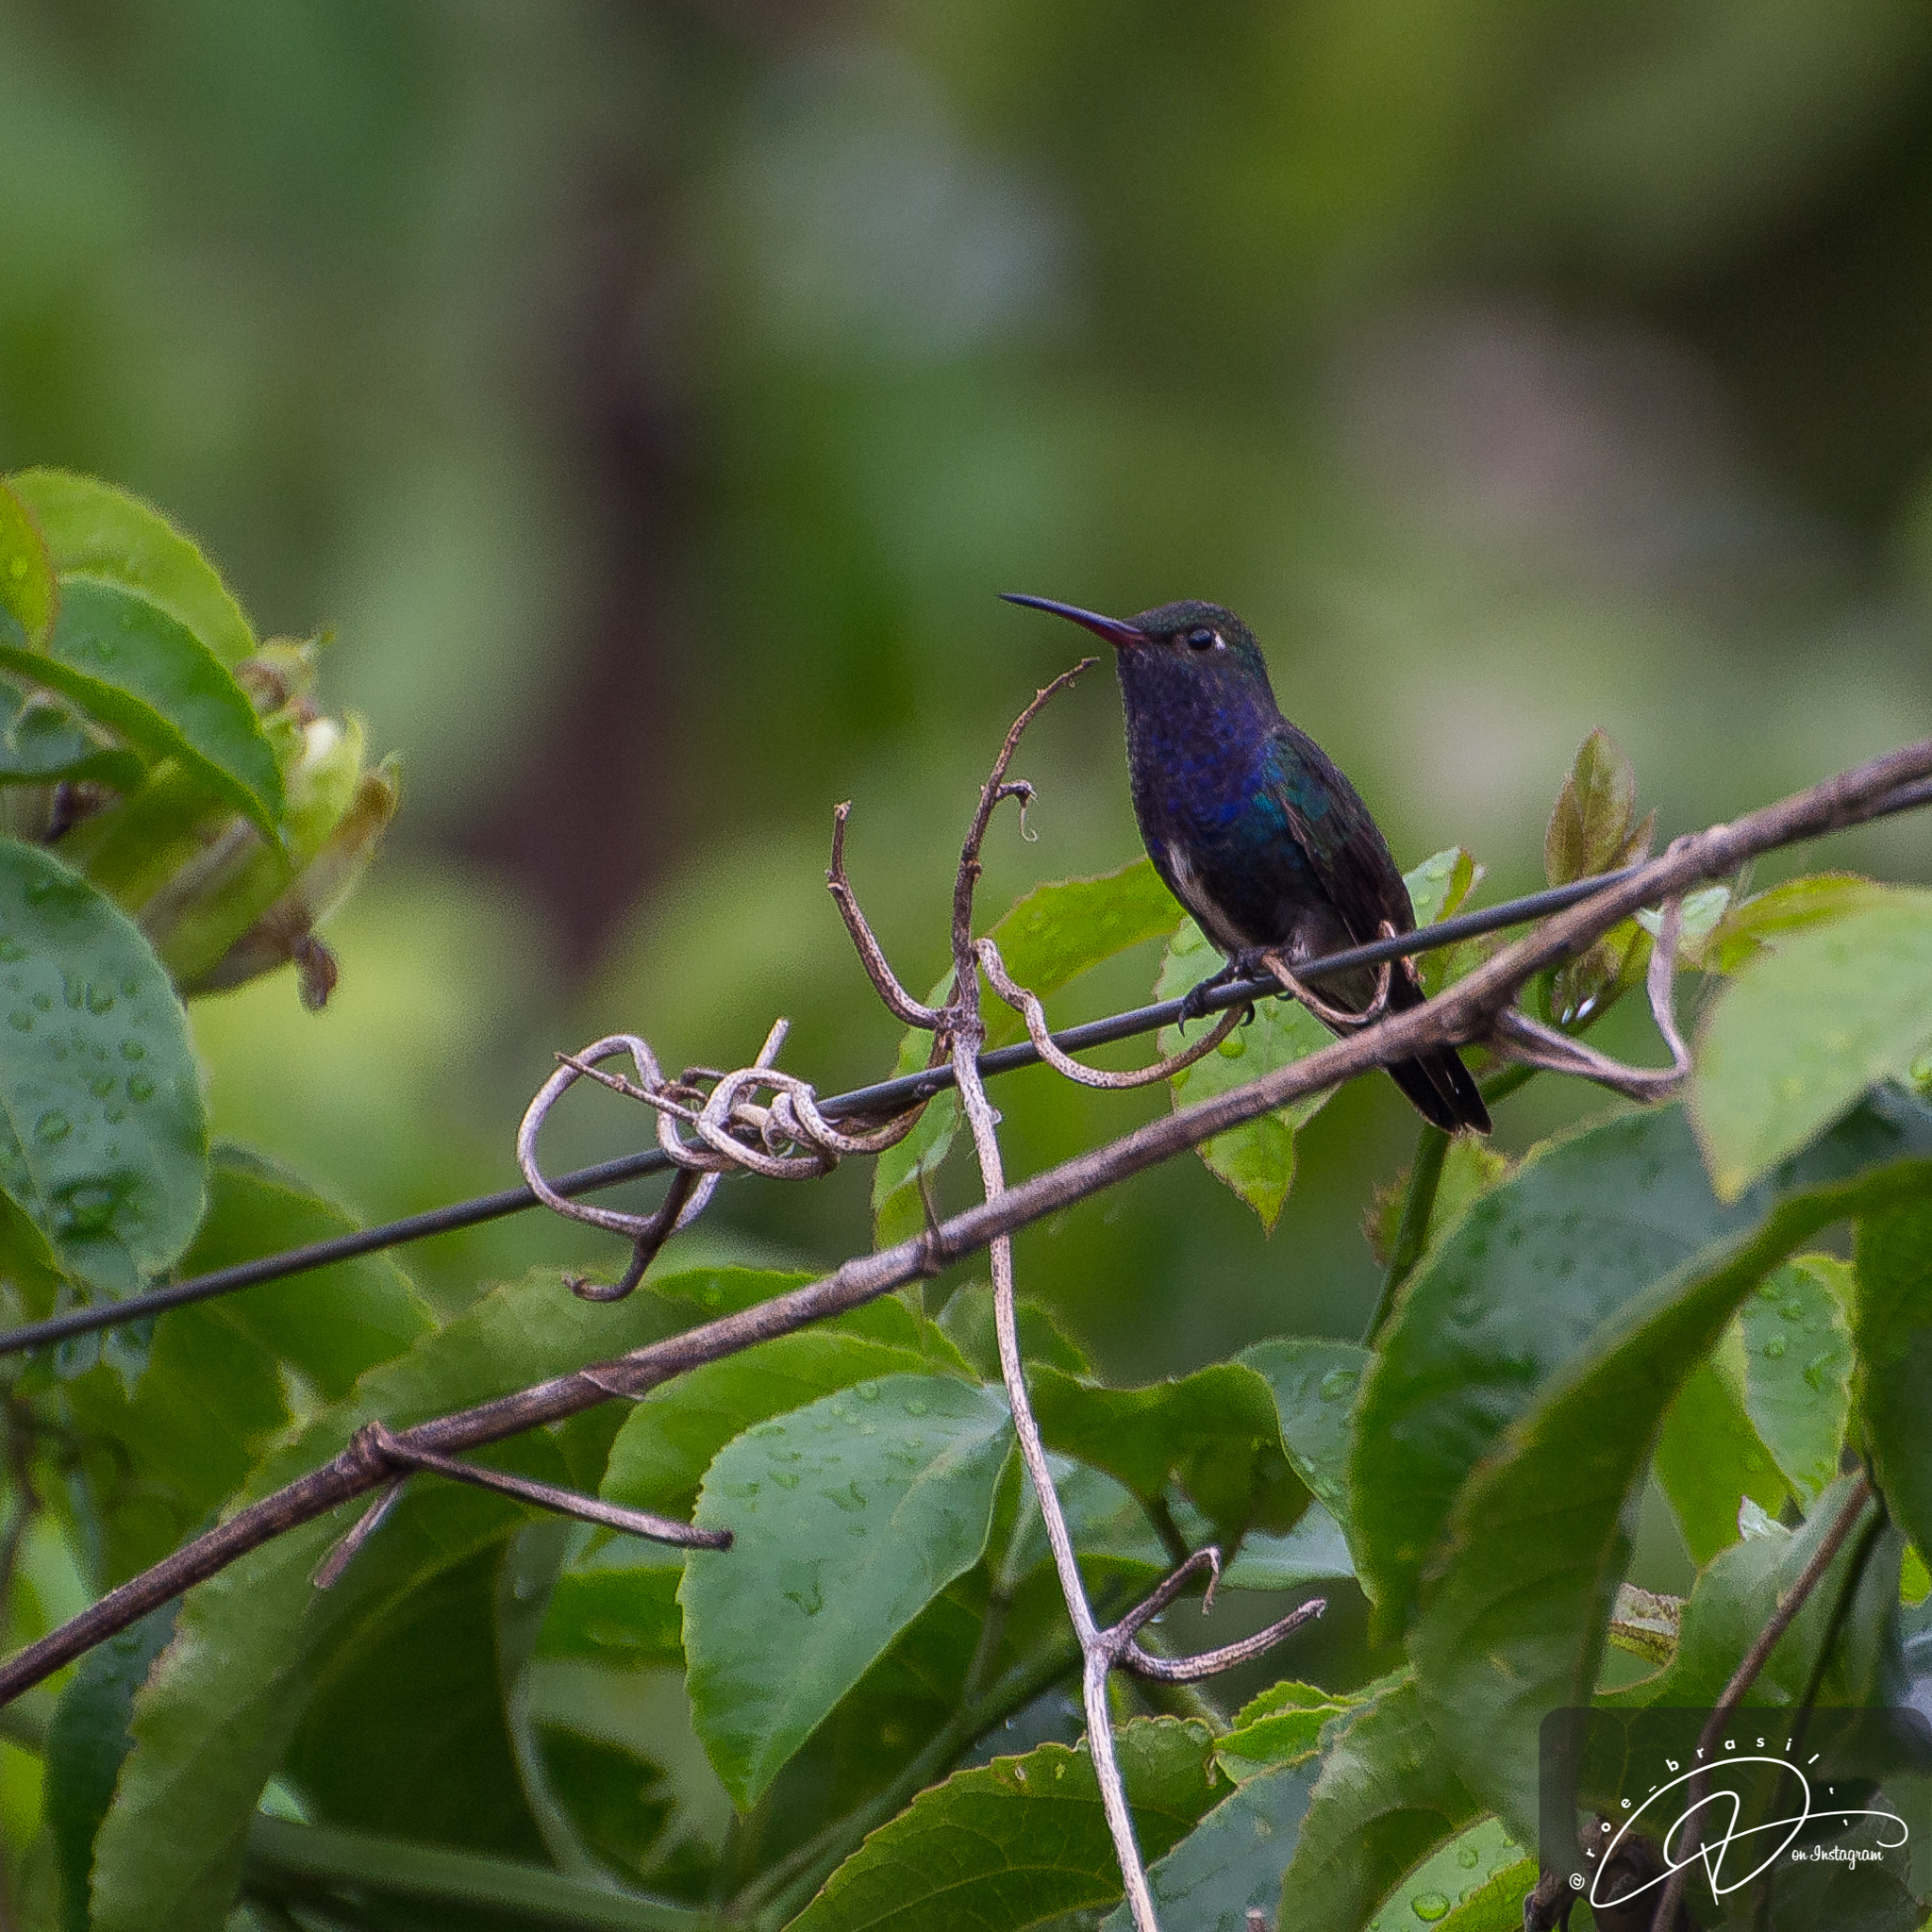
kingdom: Animalia
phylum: Chordata
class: Aves
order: Apodiformes
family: Trochilidae
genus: Chionomesa
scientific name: Chionomesa lactea
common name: Sapphire-spangled emerald
